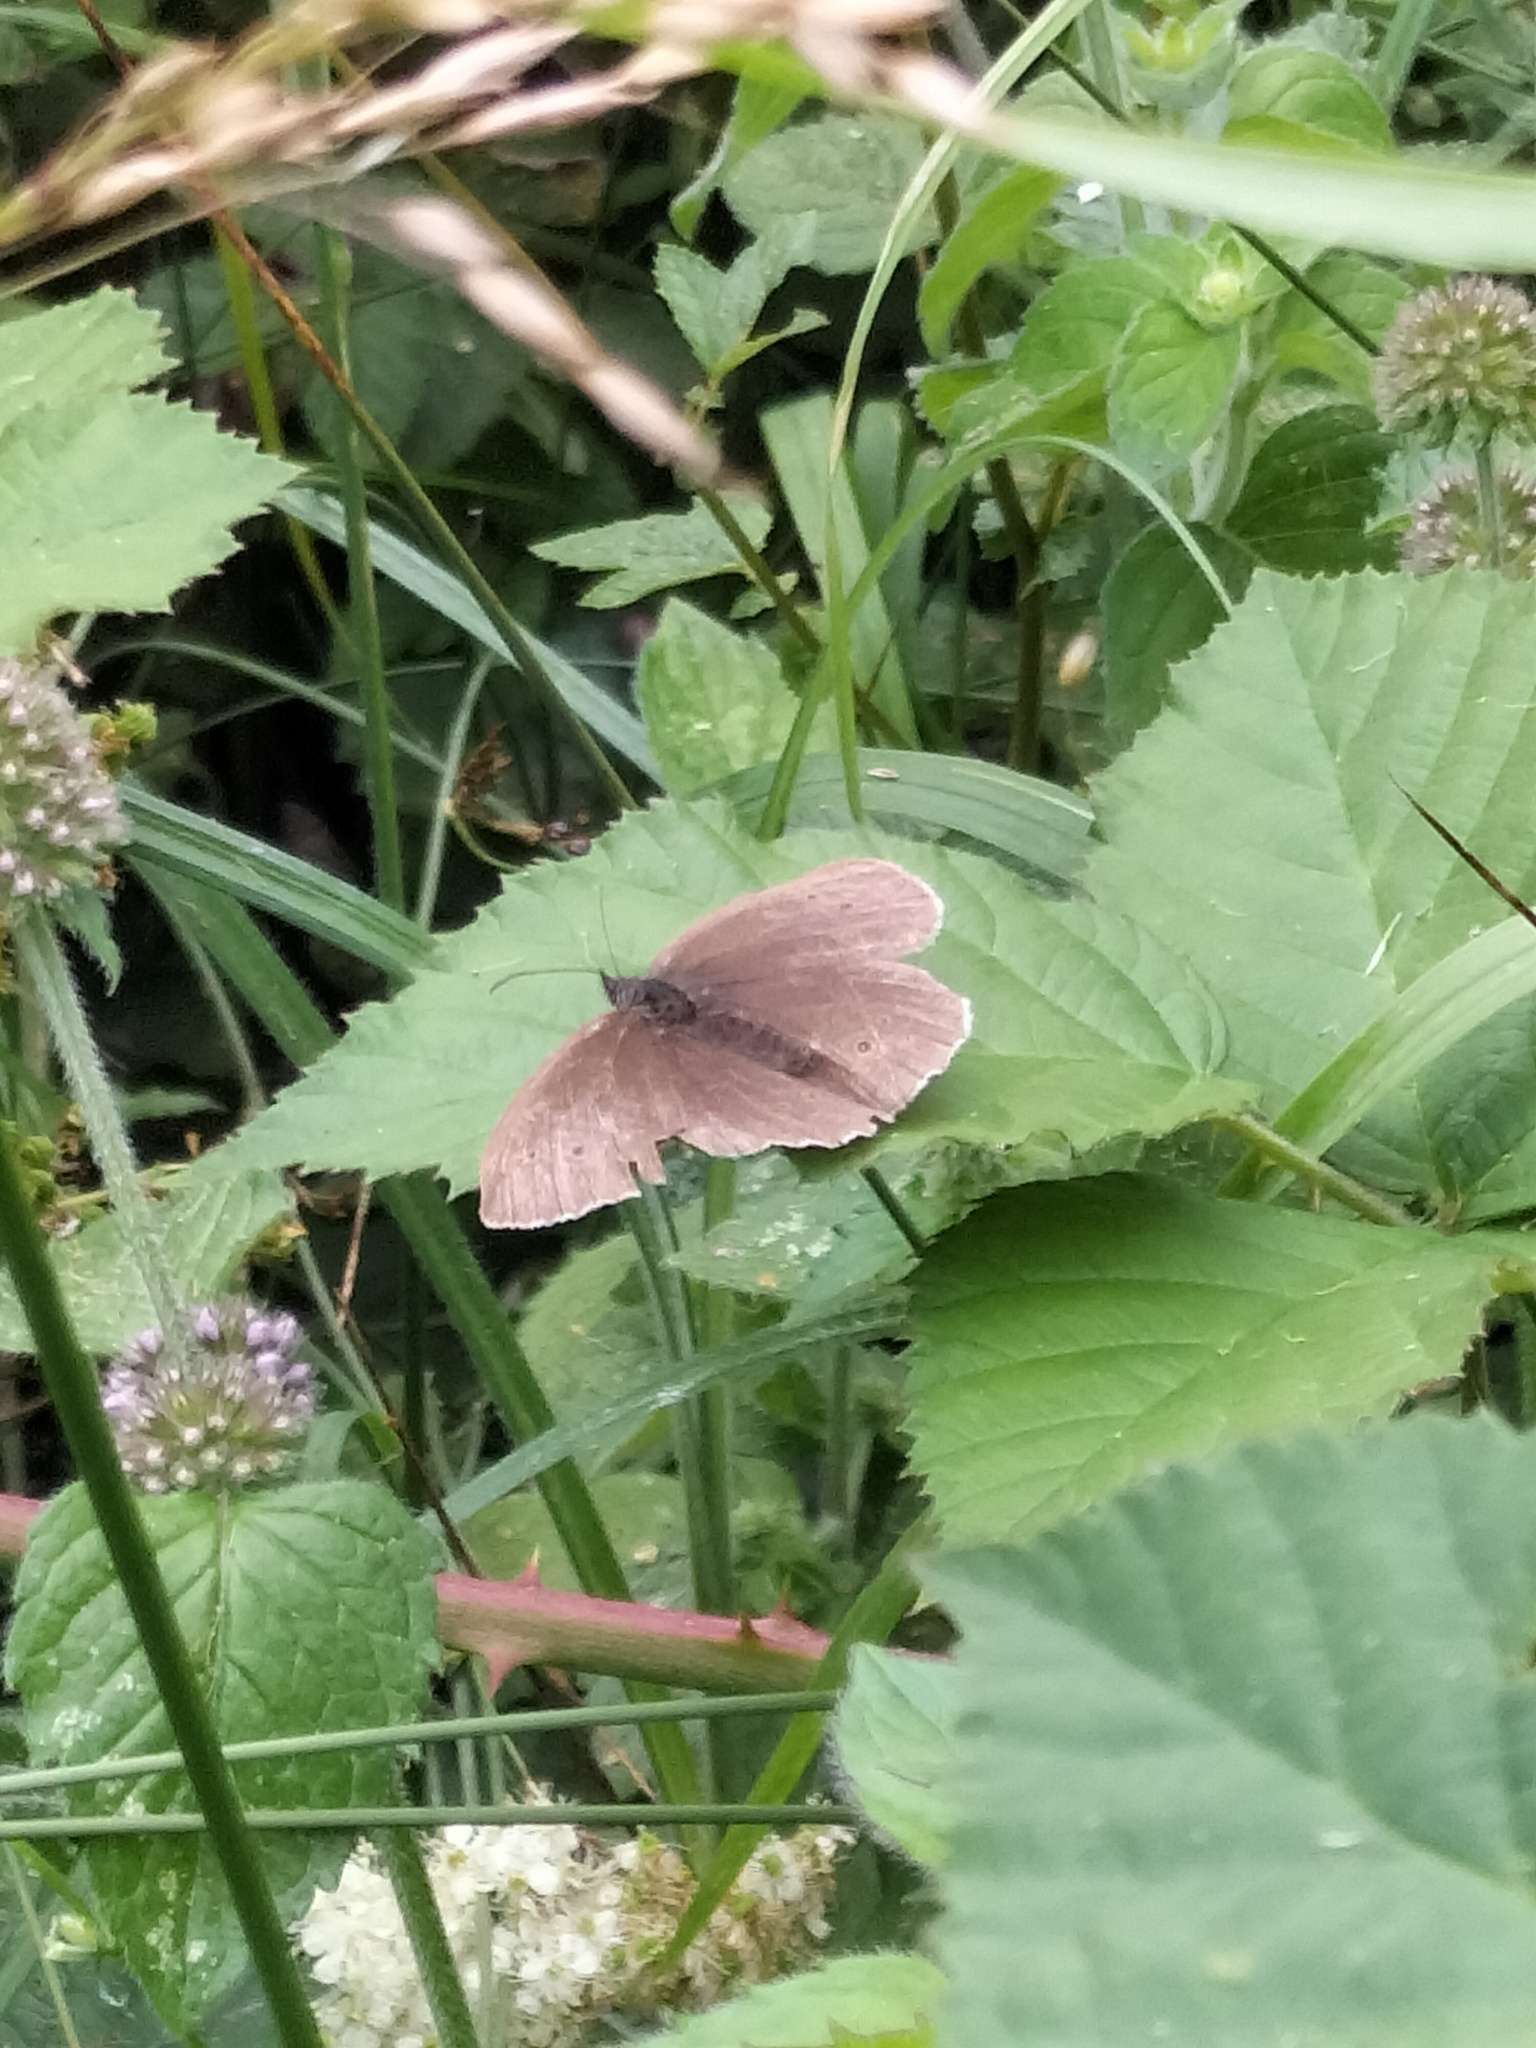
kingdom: Animalia
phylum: Arthropoda
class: Insecta
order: Lepidoptera
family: Nymphalidae
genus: Aphantopus
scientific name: Aphantopus hyperantus
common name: Ringlet
